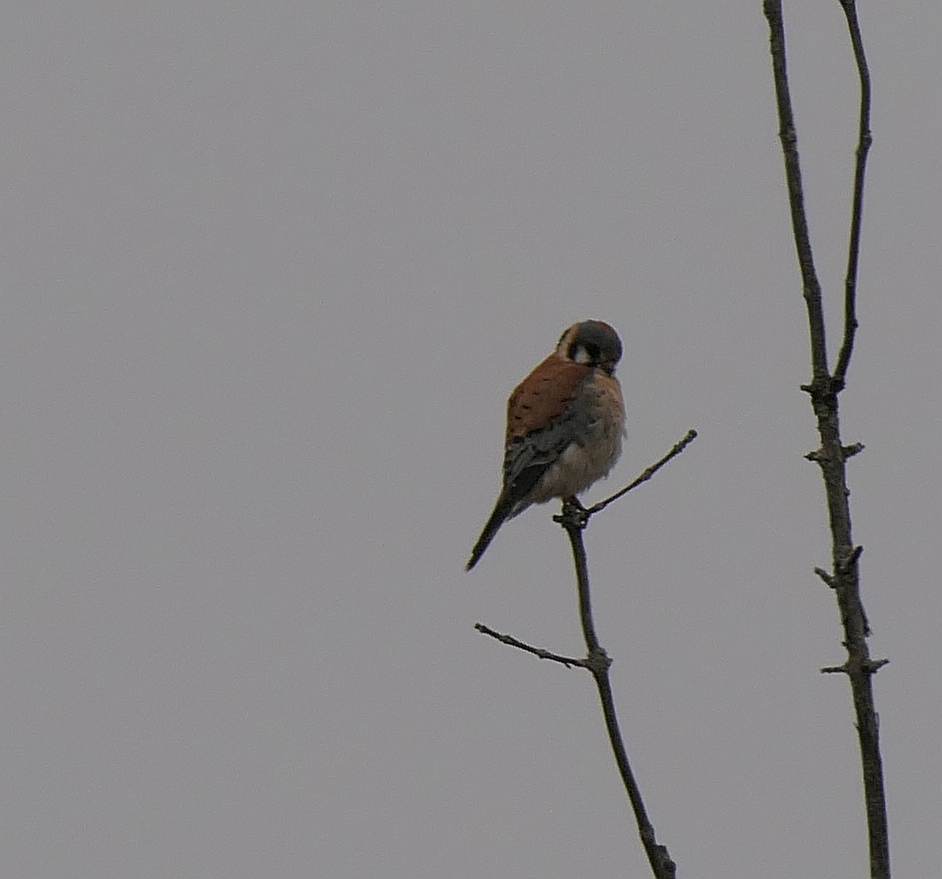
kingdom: Animalia
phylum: Chordata
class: Aves
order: Falconiformes
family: Falconidae
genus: Falco
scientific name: Falco sparverius
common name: American kestrel
